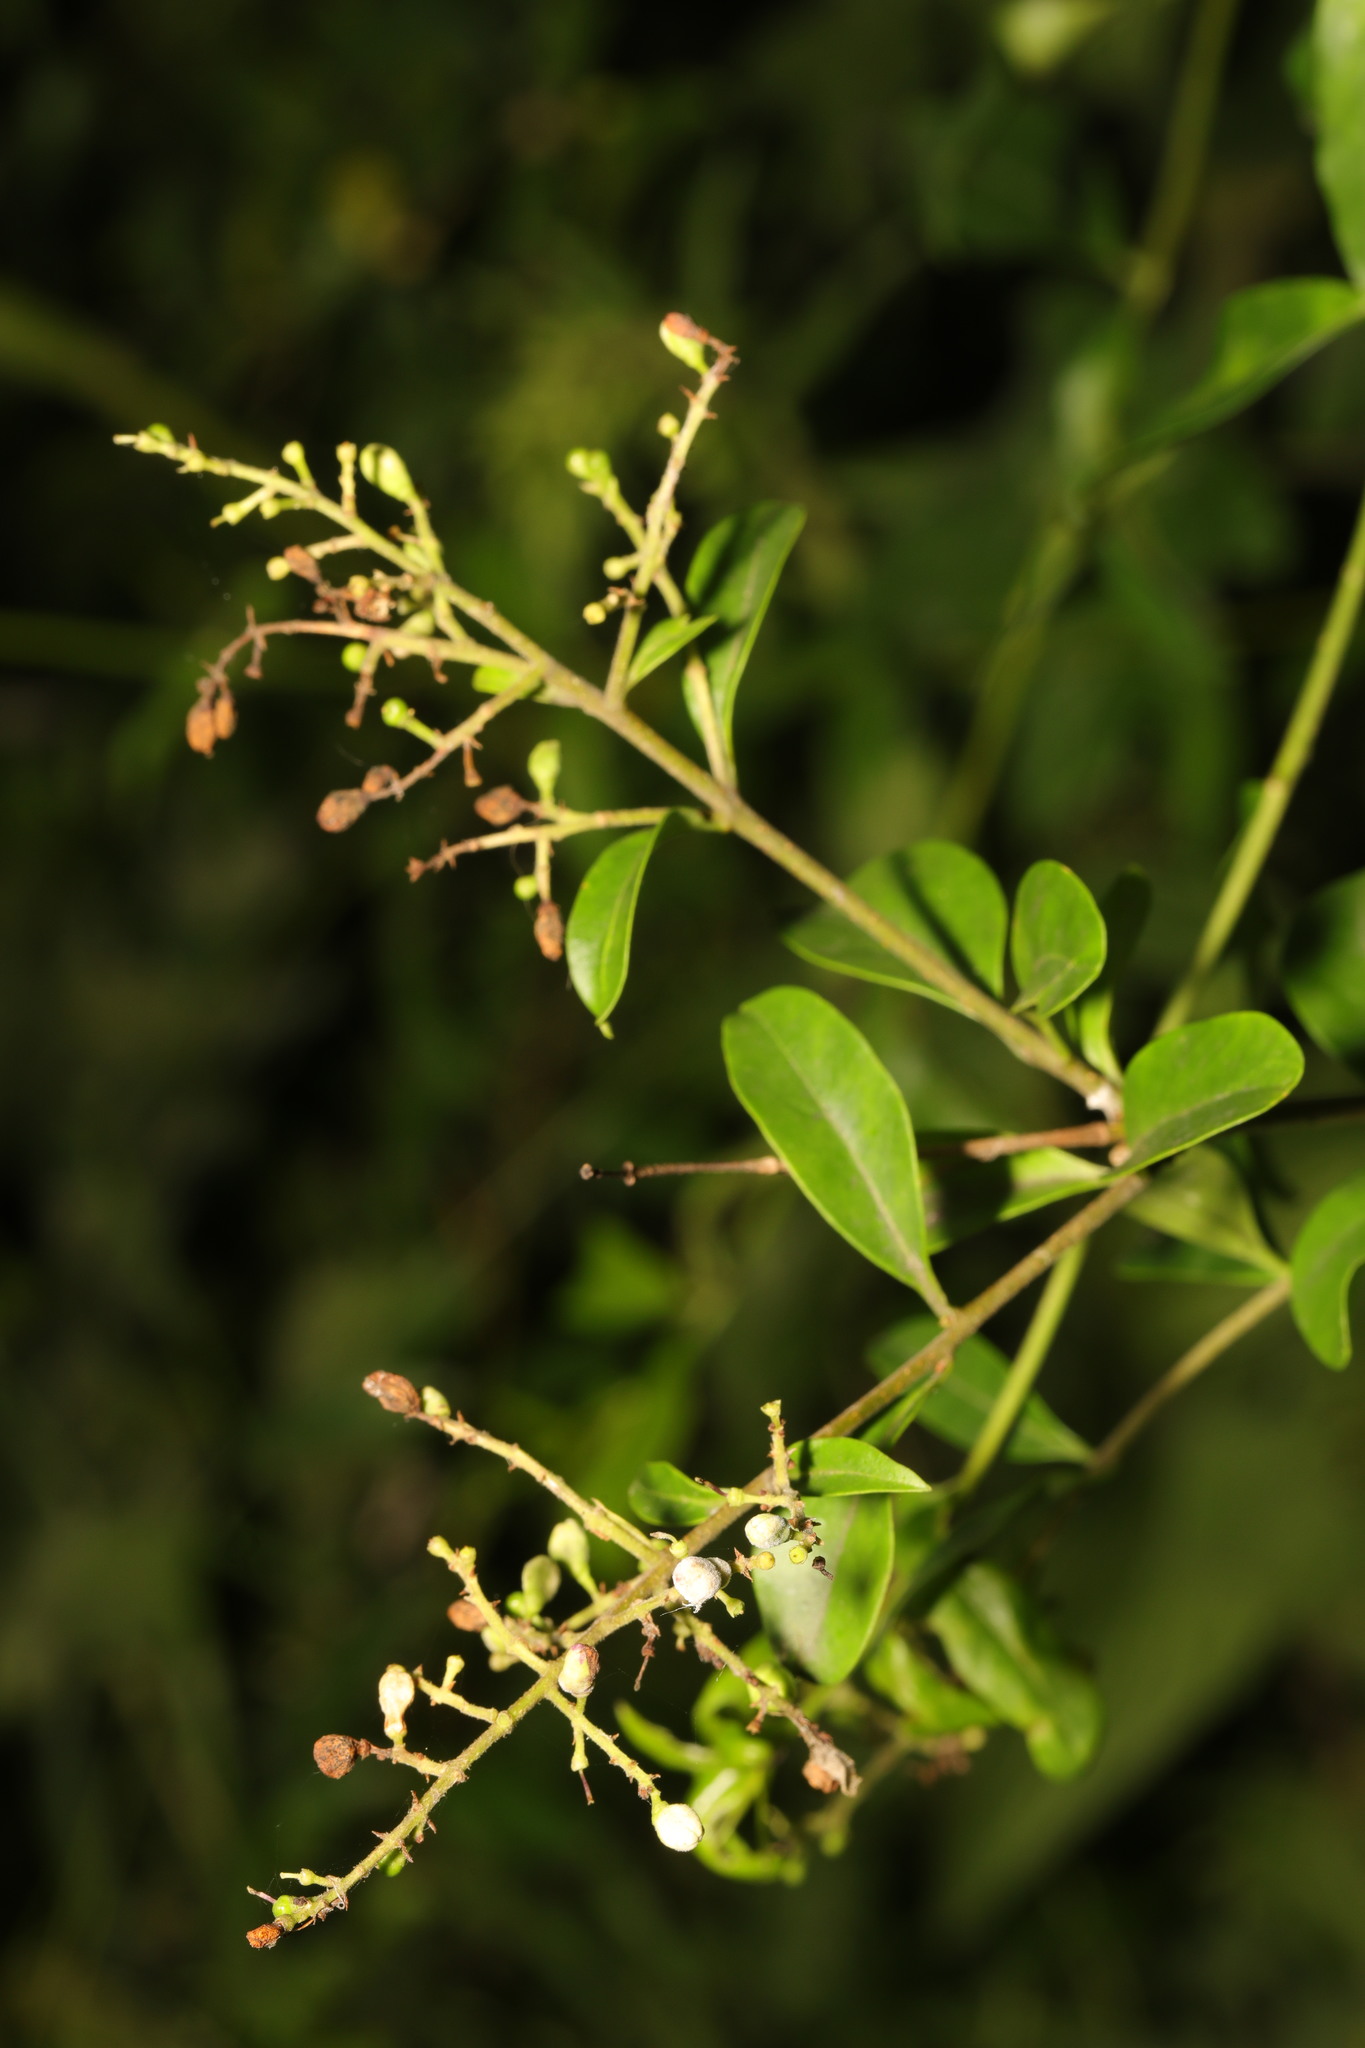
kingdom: Plantae
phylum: Tracheophyta
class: Magnoliopsida
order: Lamiales
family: Oleaceae
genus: Ligustrum
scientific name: Ligustrum vulgare
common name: Wild privet
